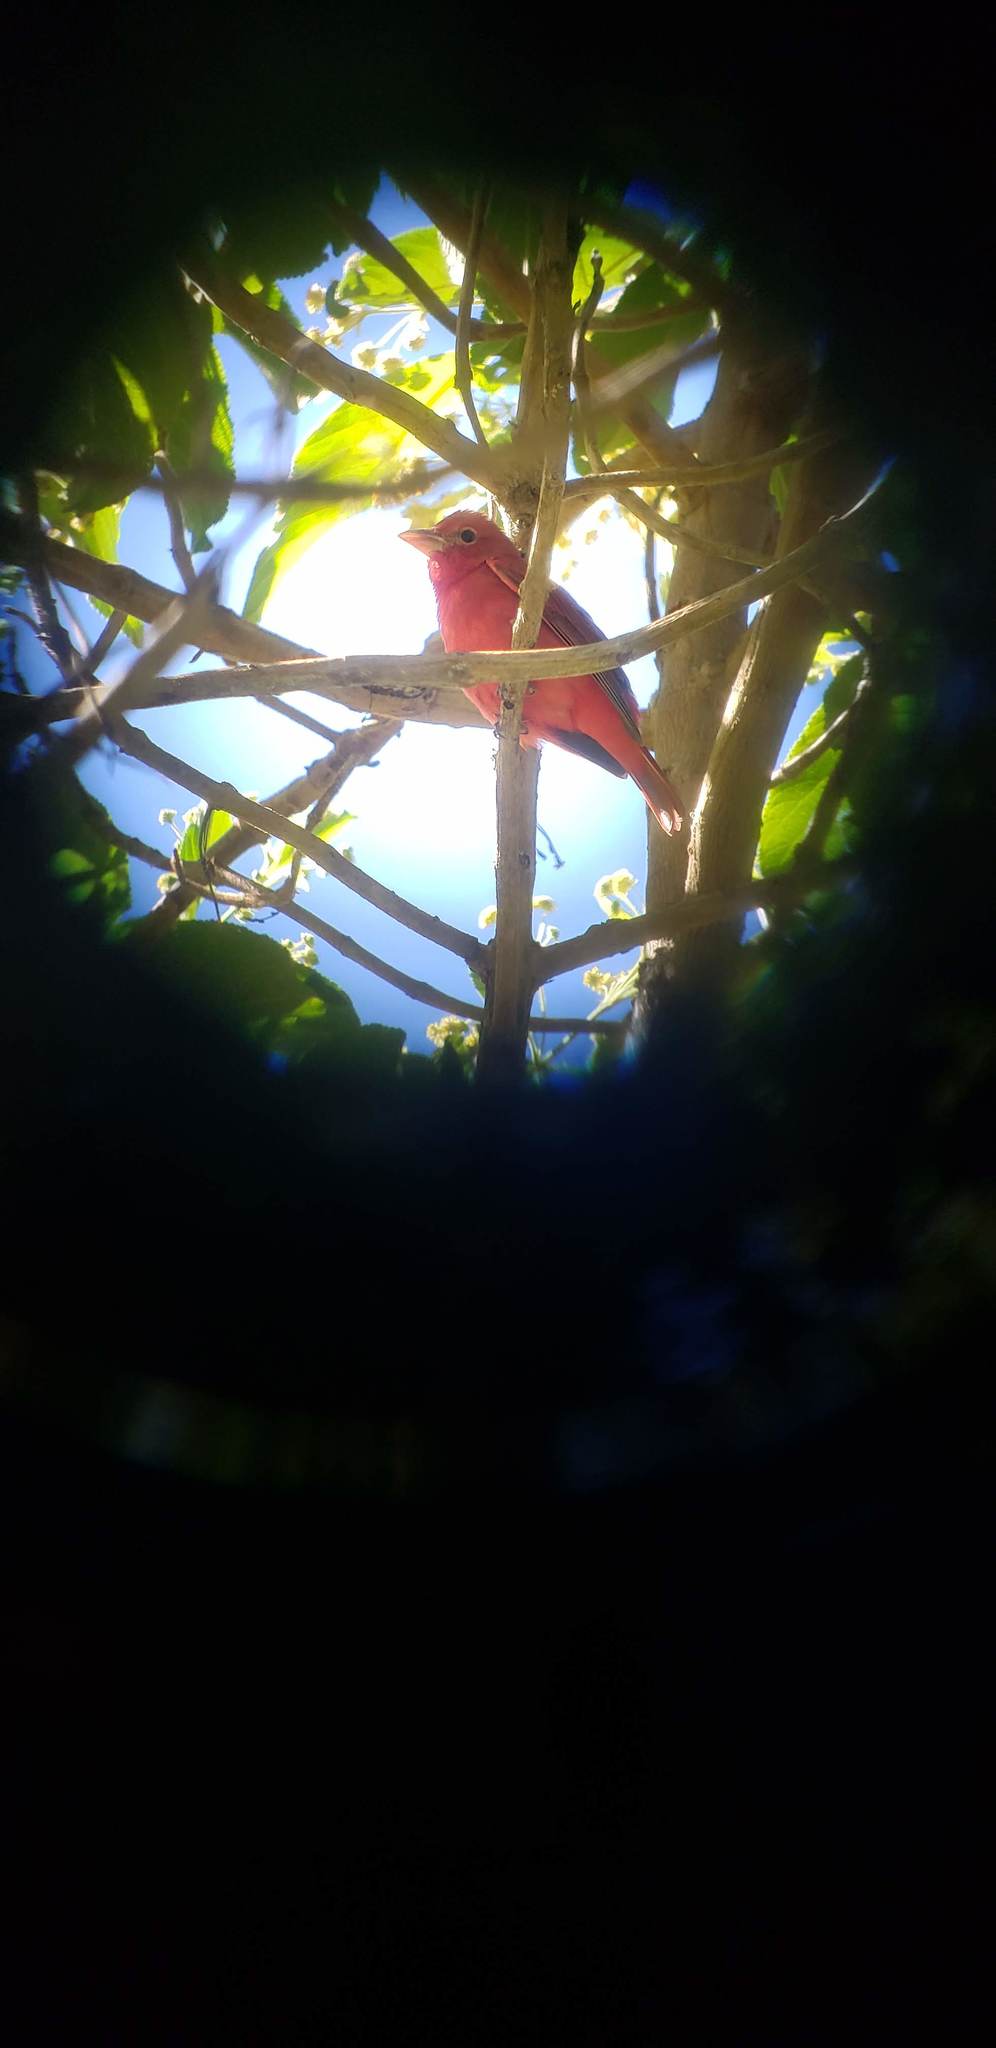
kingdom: Animalia
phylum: Chordata
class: Aves
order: Passeriformes
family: Cardinalidae
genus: Piranga
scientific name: Piranga rubra
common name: Summer tanager
